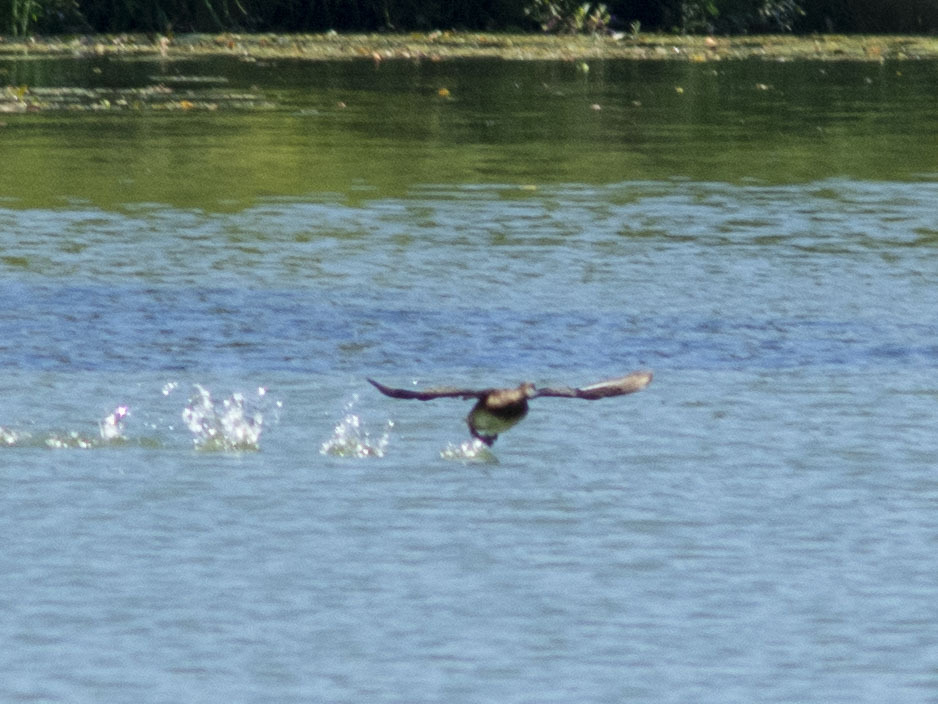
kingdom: Animalia
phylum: Chordata
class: Aves
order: Anseriformes
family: Anatidae
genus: Aythya
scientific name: Aythya fuligula
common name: Tufted duck
